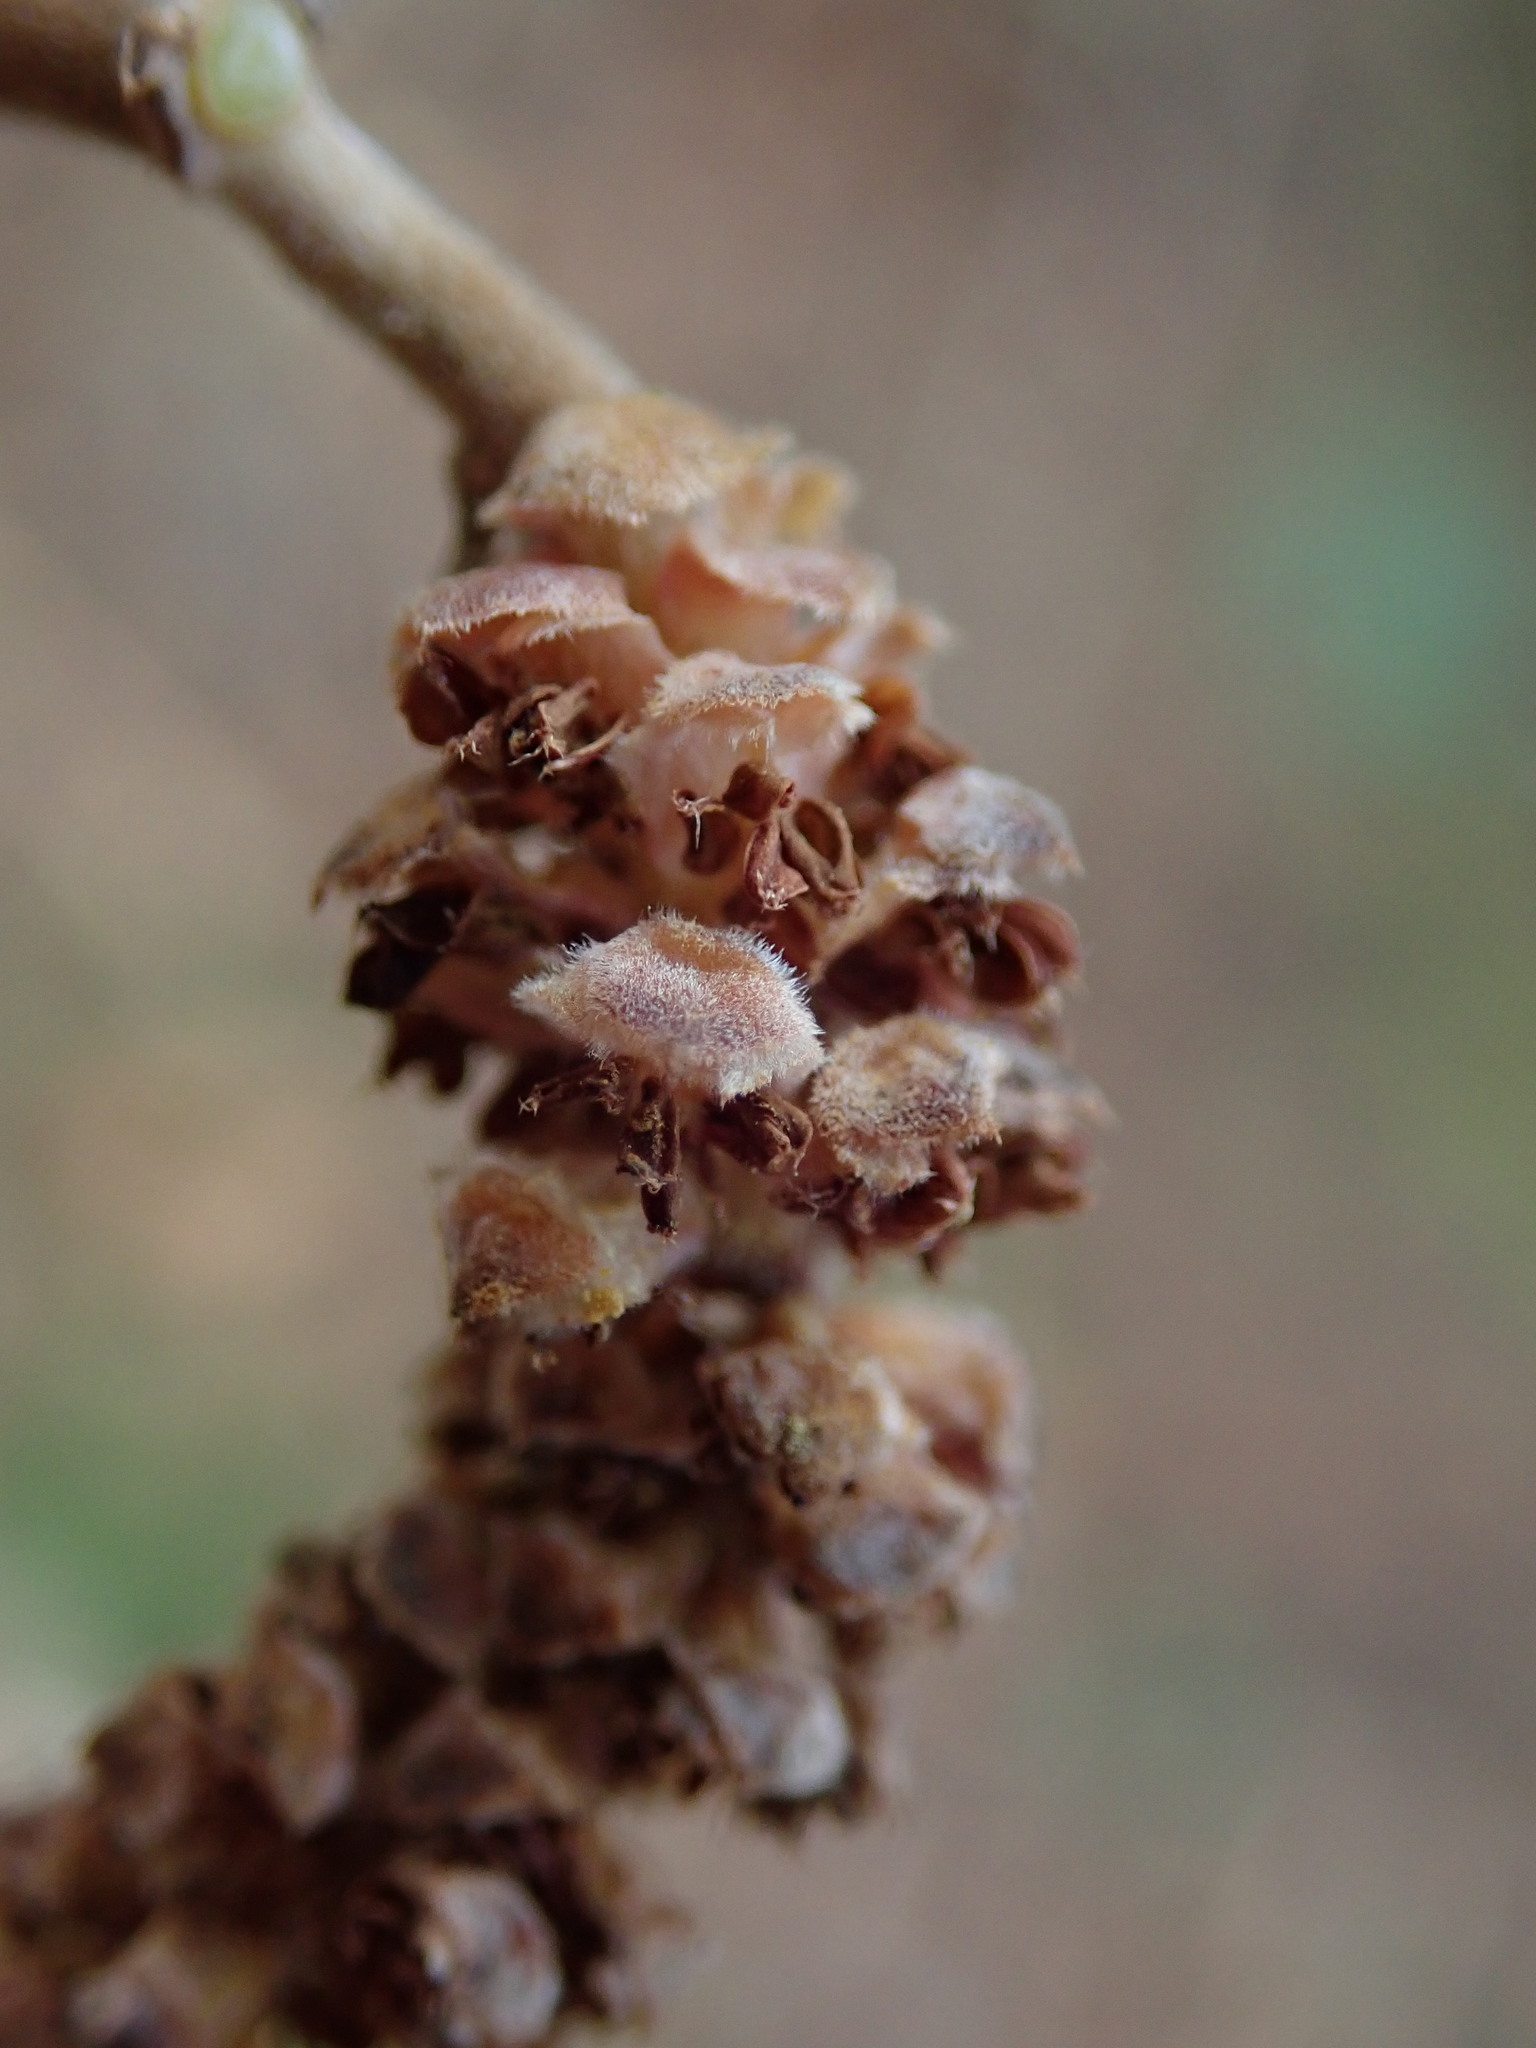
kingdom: Plantae
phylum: Tracheophyta
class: Magnoliopsida
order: Fagales
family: Betulaceae
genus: Corylus
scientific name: Corylus avellana
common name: European hazel
